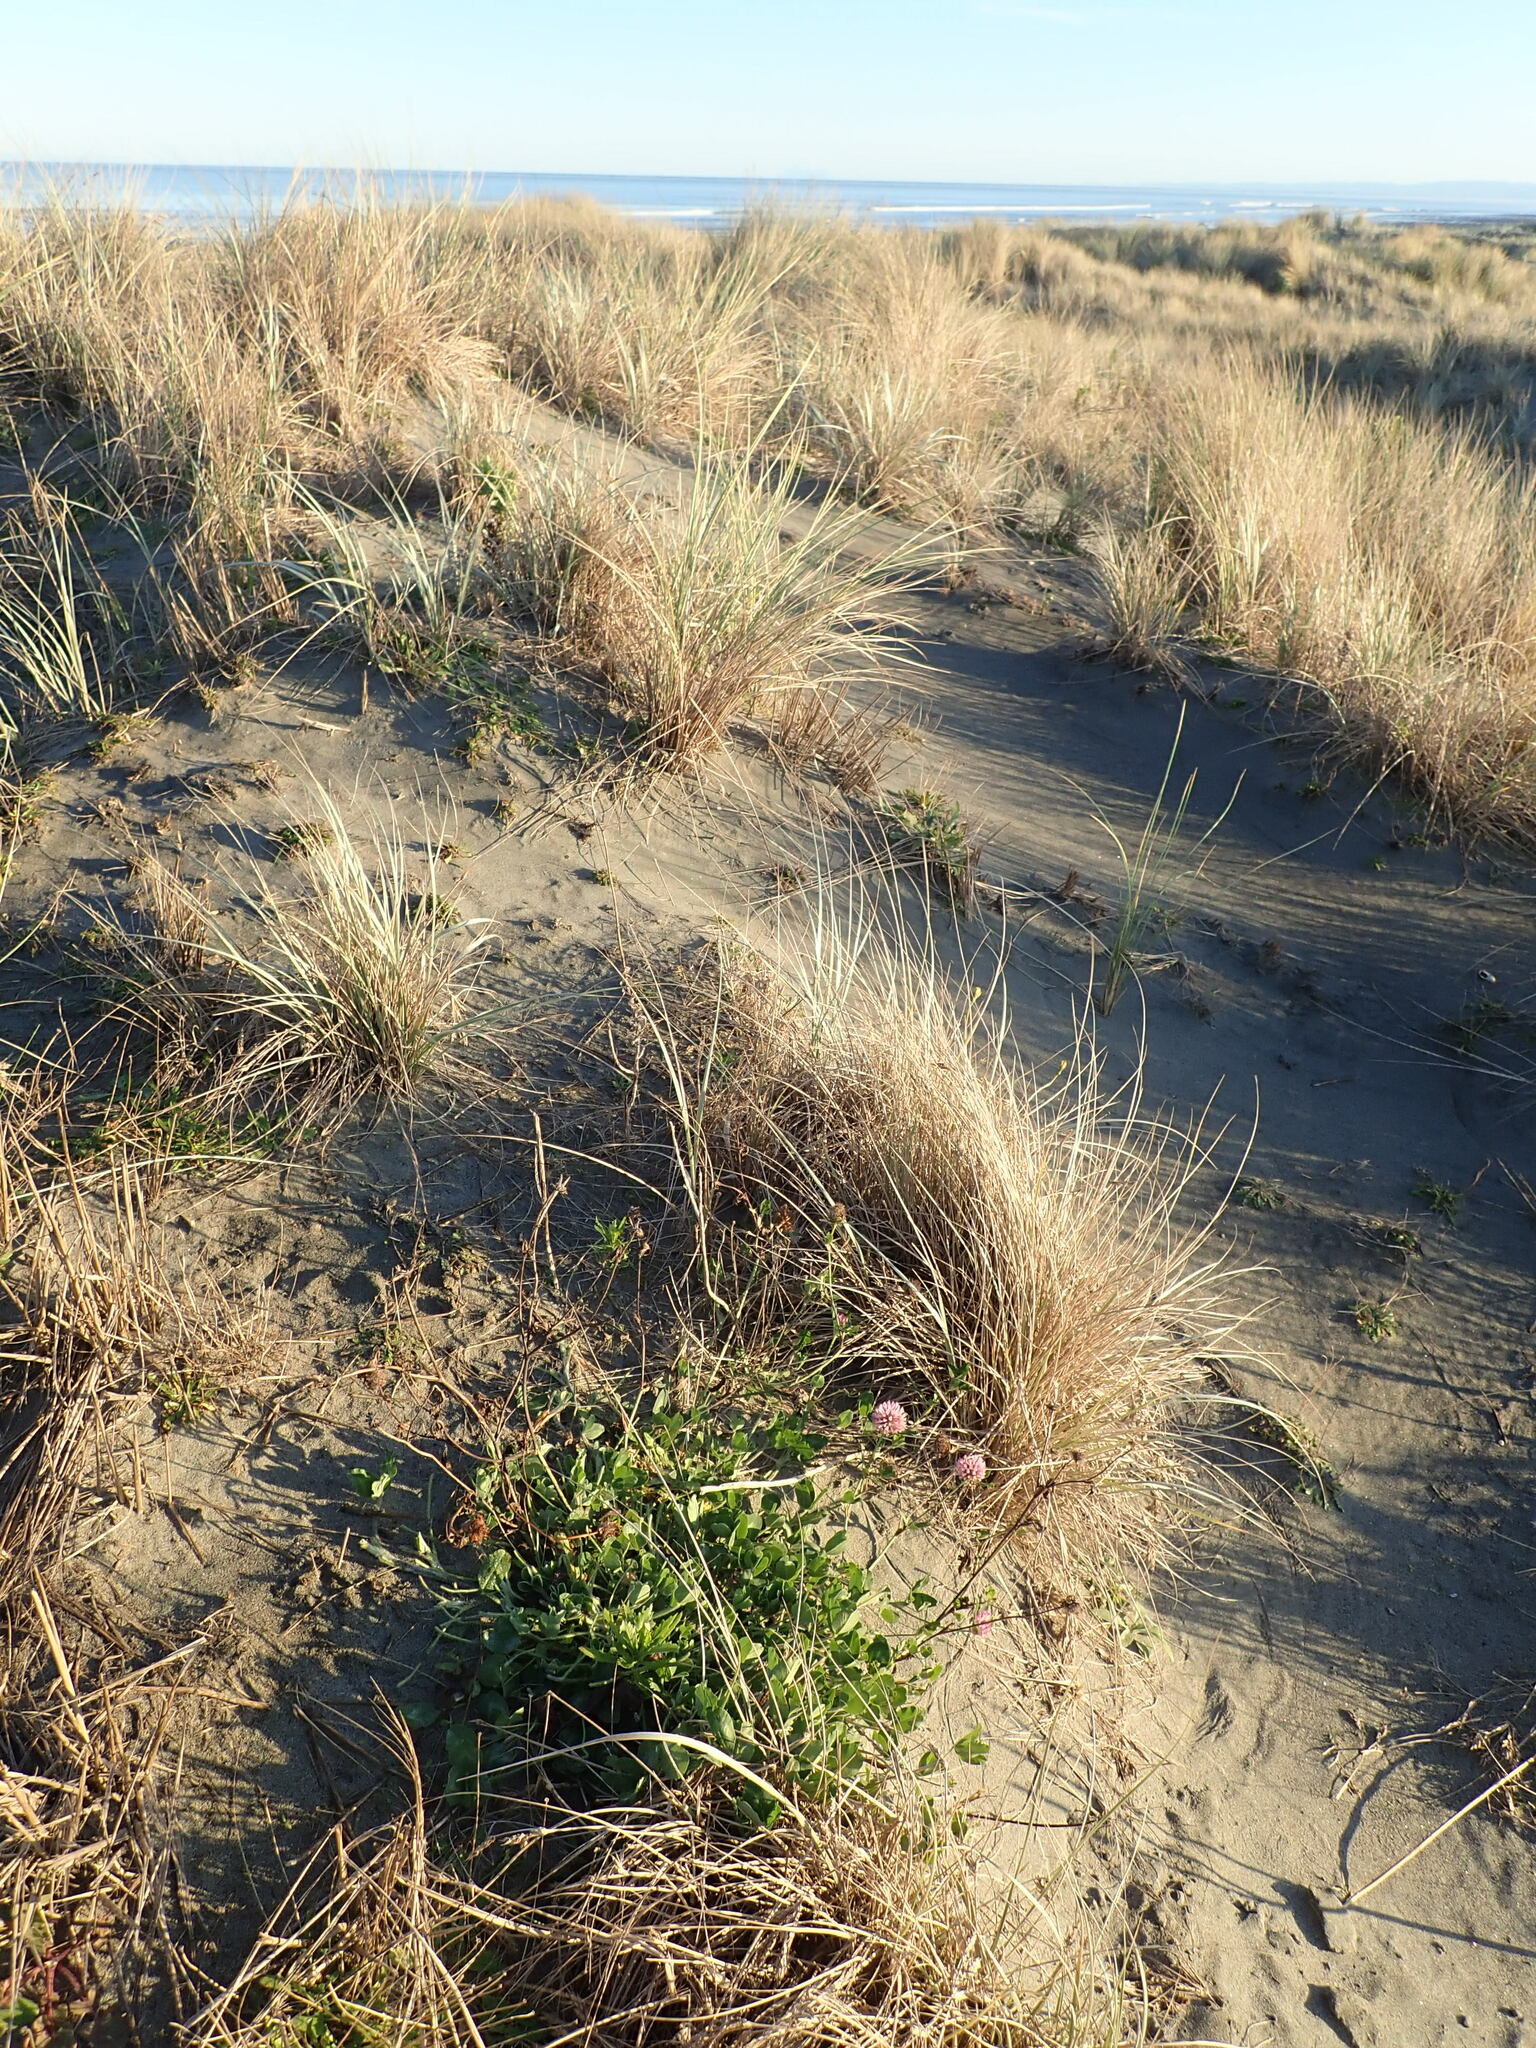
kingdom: Plantae
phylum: Tracheophyta
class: Magnoliopsida
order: Fabales
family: Fabaceae
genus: Trifolium
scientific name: Trifolium pratense
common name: Red clover
